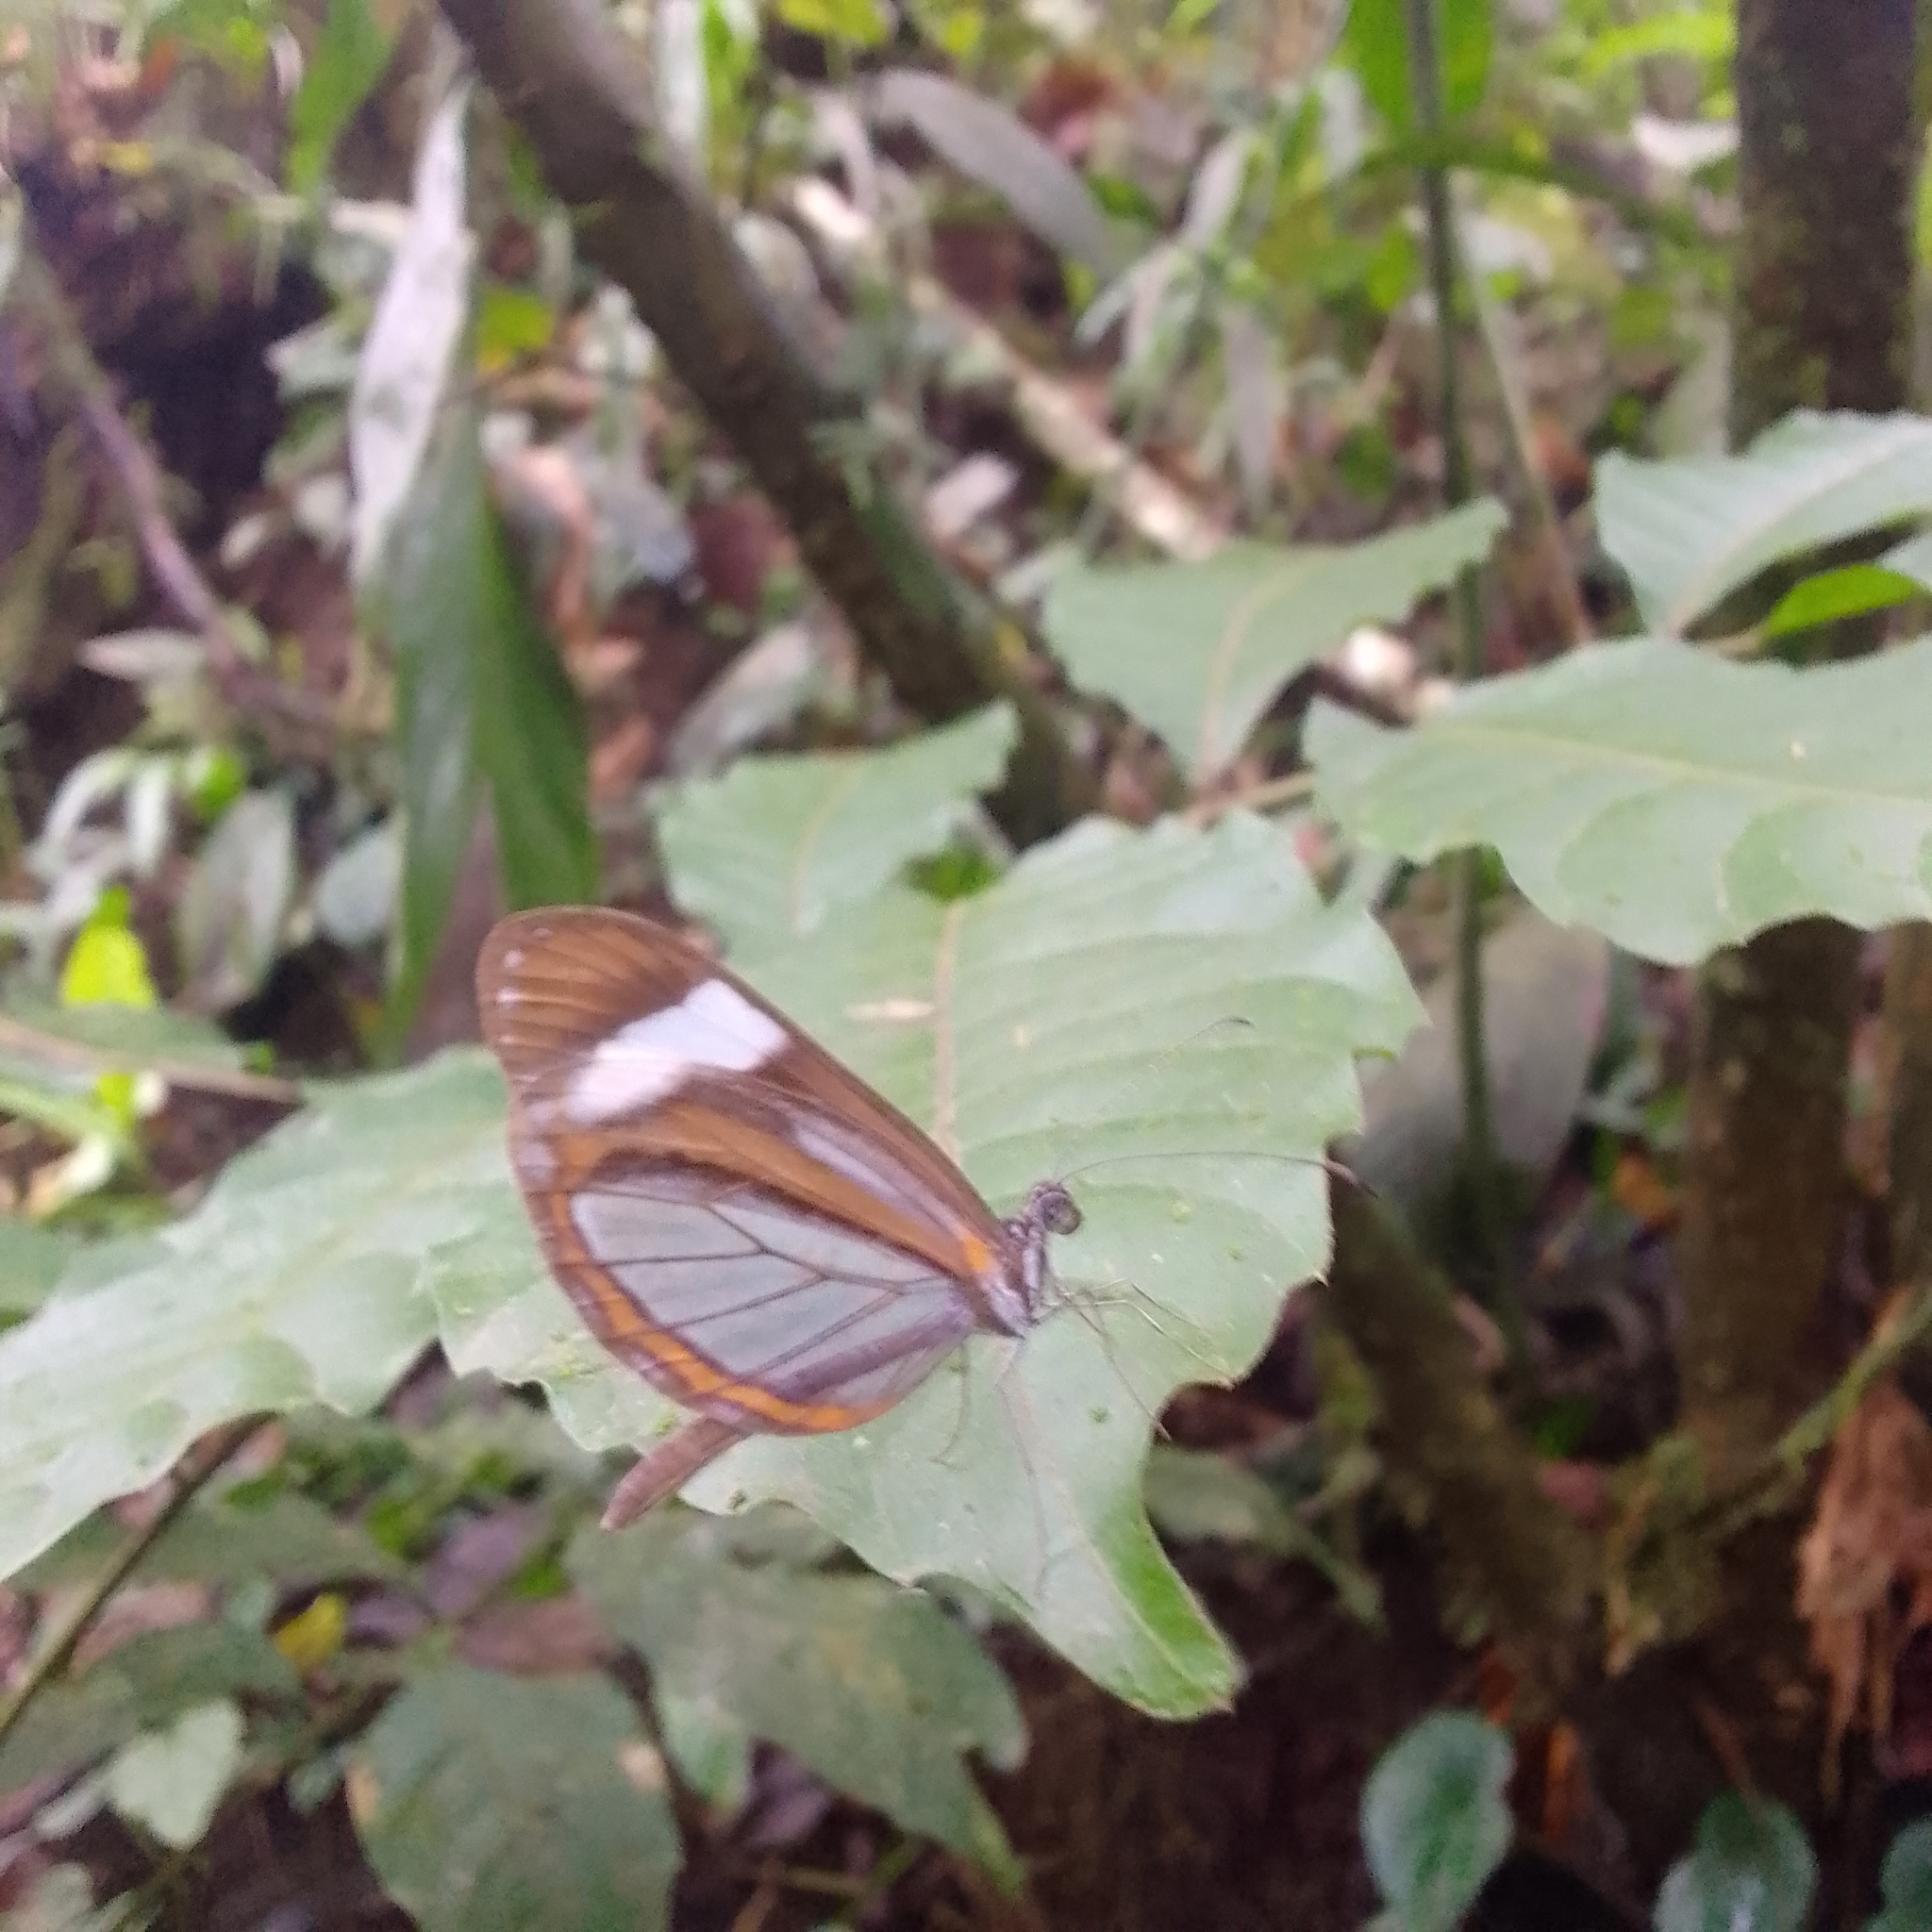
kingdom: Animalia
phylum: Arthropoda
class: Insecta
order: Lepidoptera
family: Pieridae
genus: Dismorphia
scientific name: Dismorphia theucharila
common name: Clearwing mimic-white
